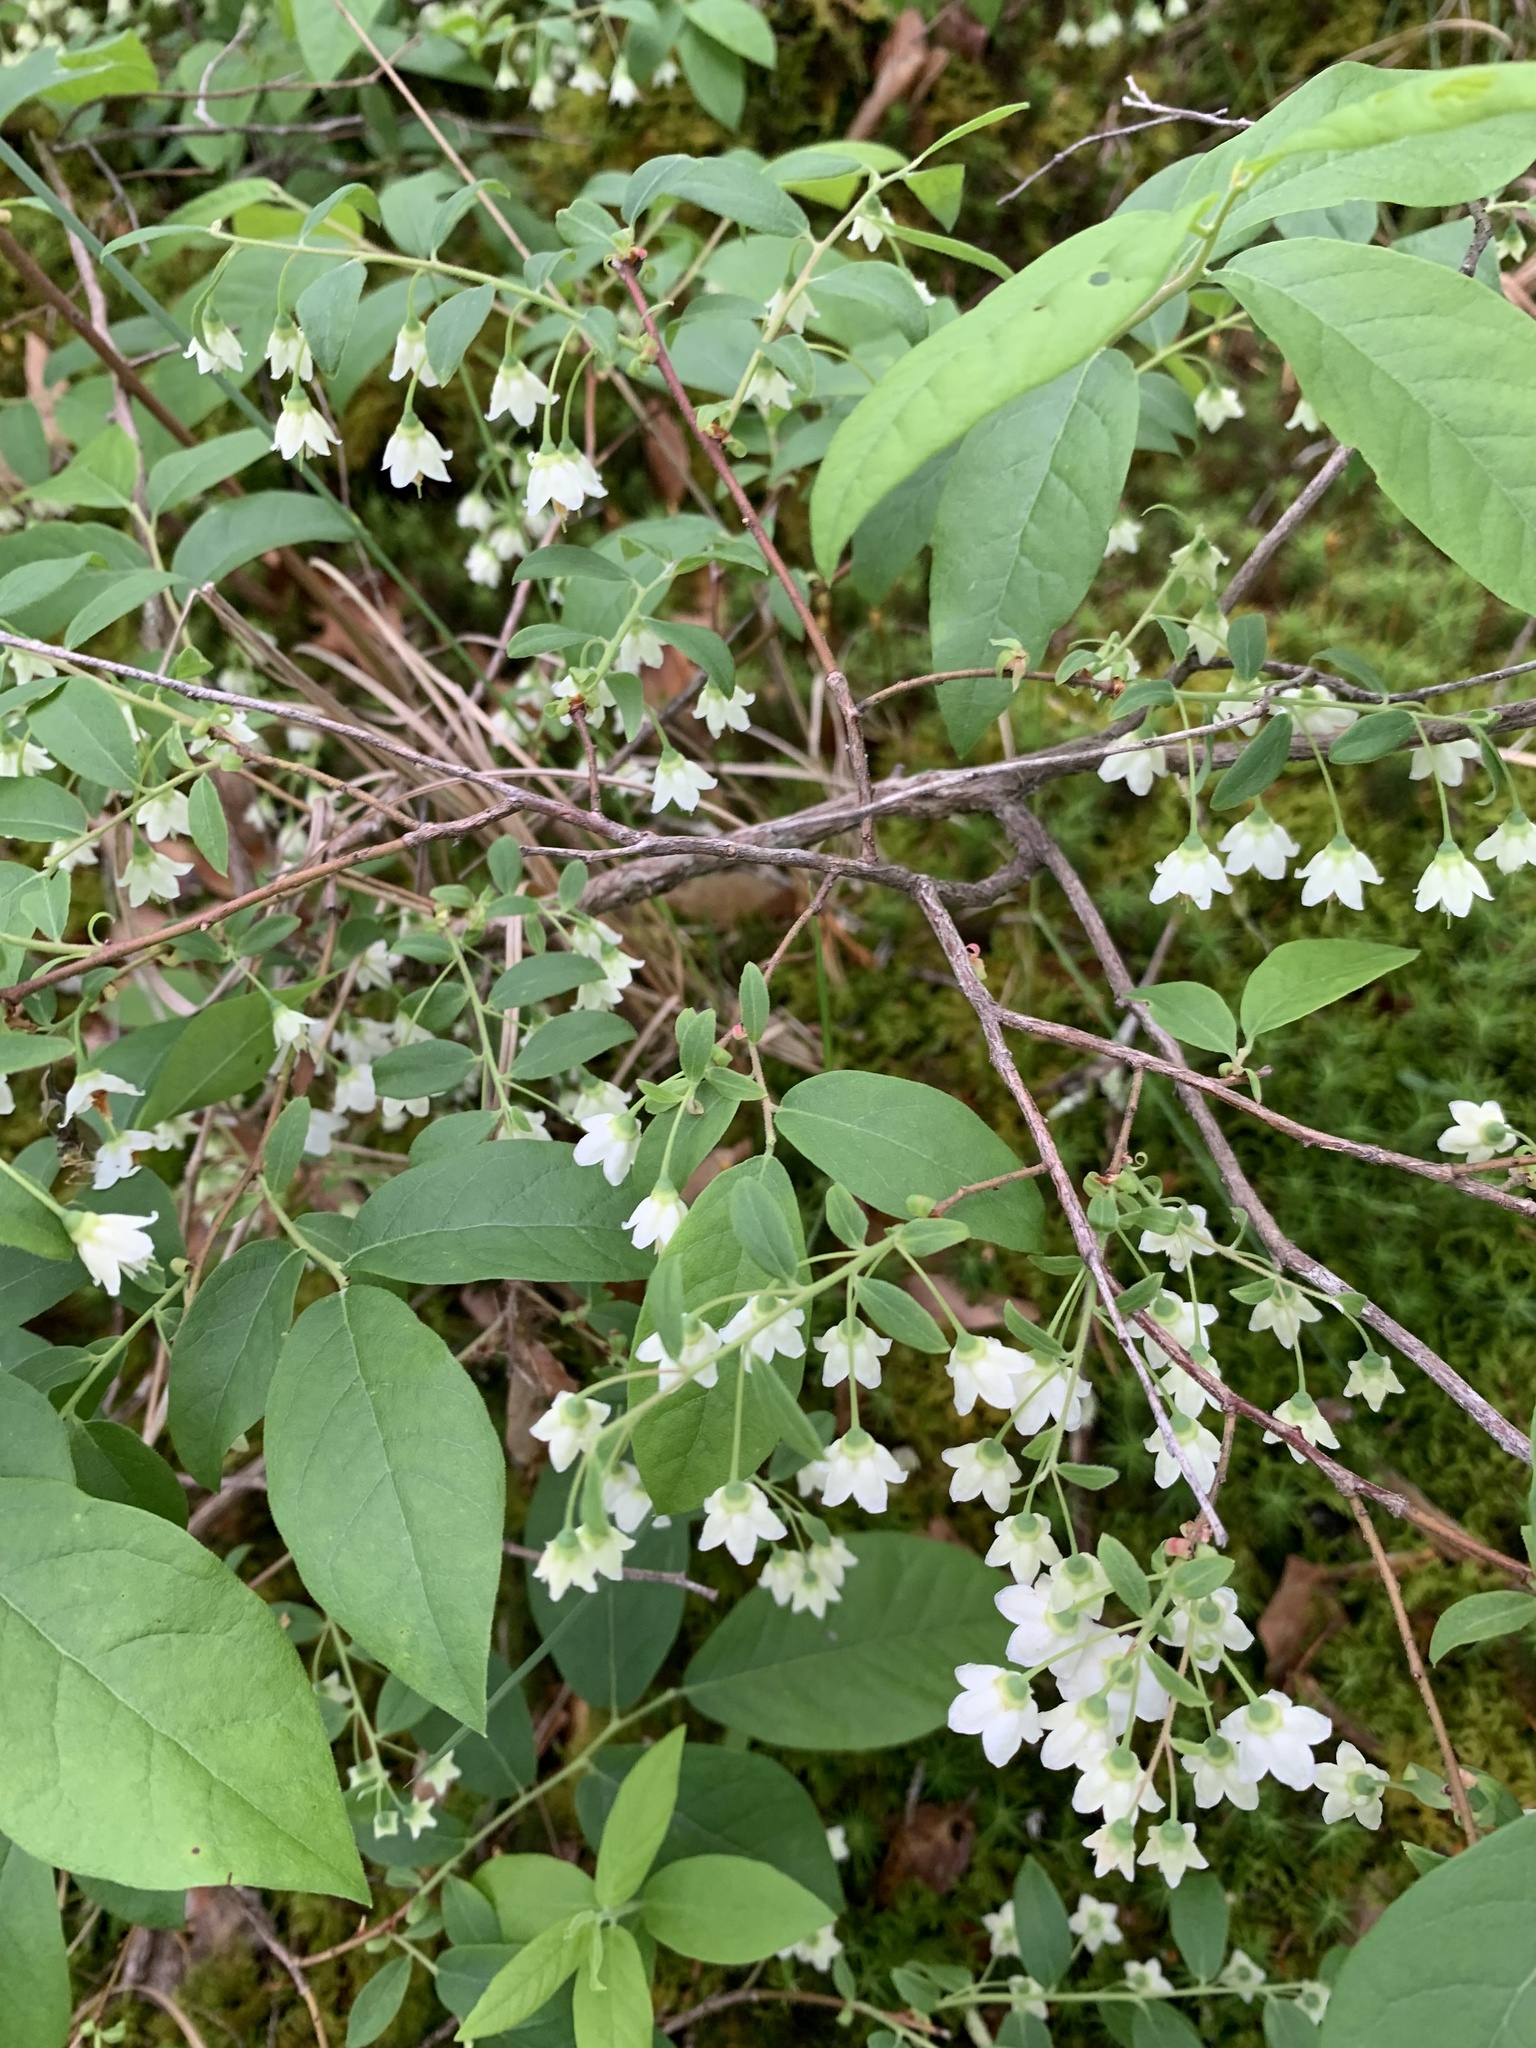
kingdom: Plantae
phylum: Tracheophyta
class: Magnoliopsida
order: Ericales
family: Ericaceae
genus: Vaccinium
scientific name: Vaccinium stamineum
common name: Deerberry
